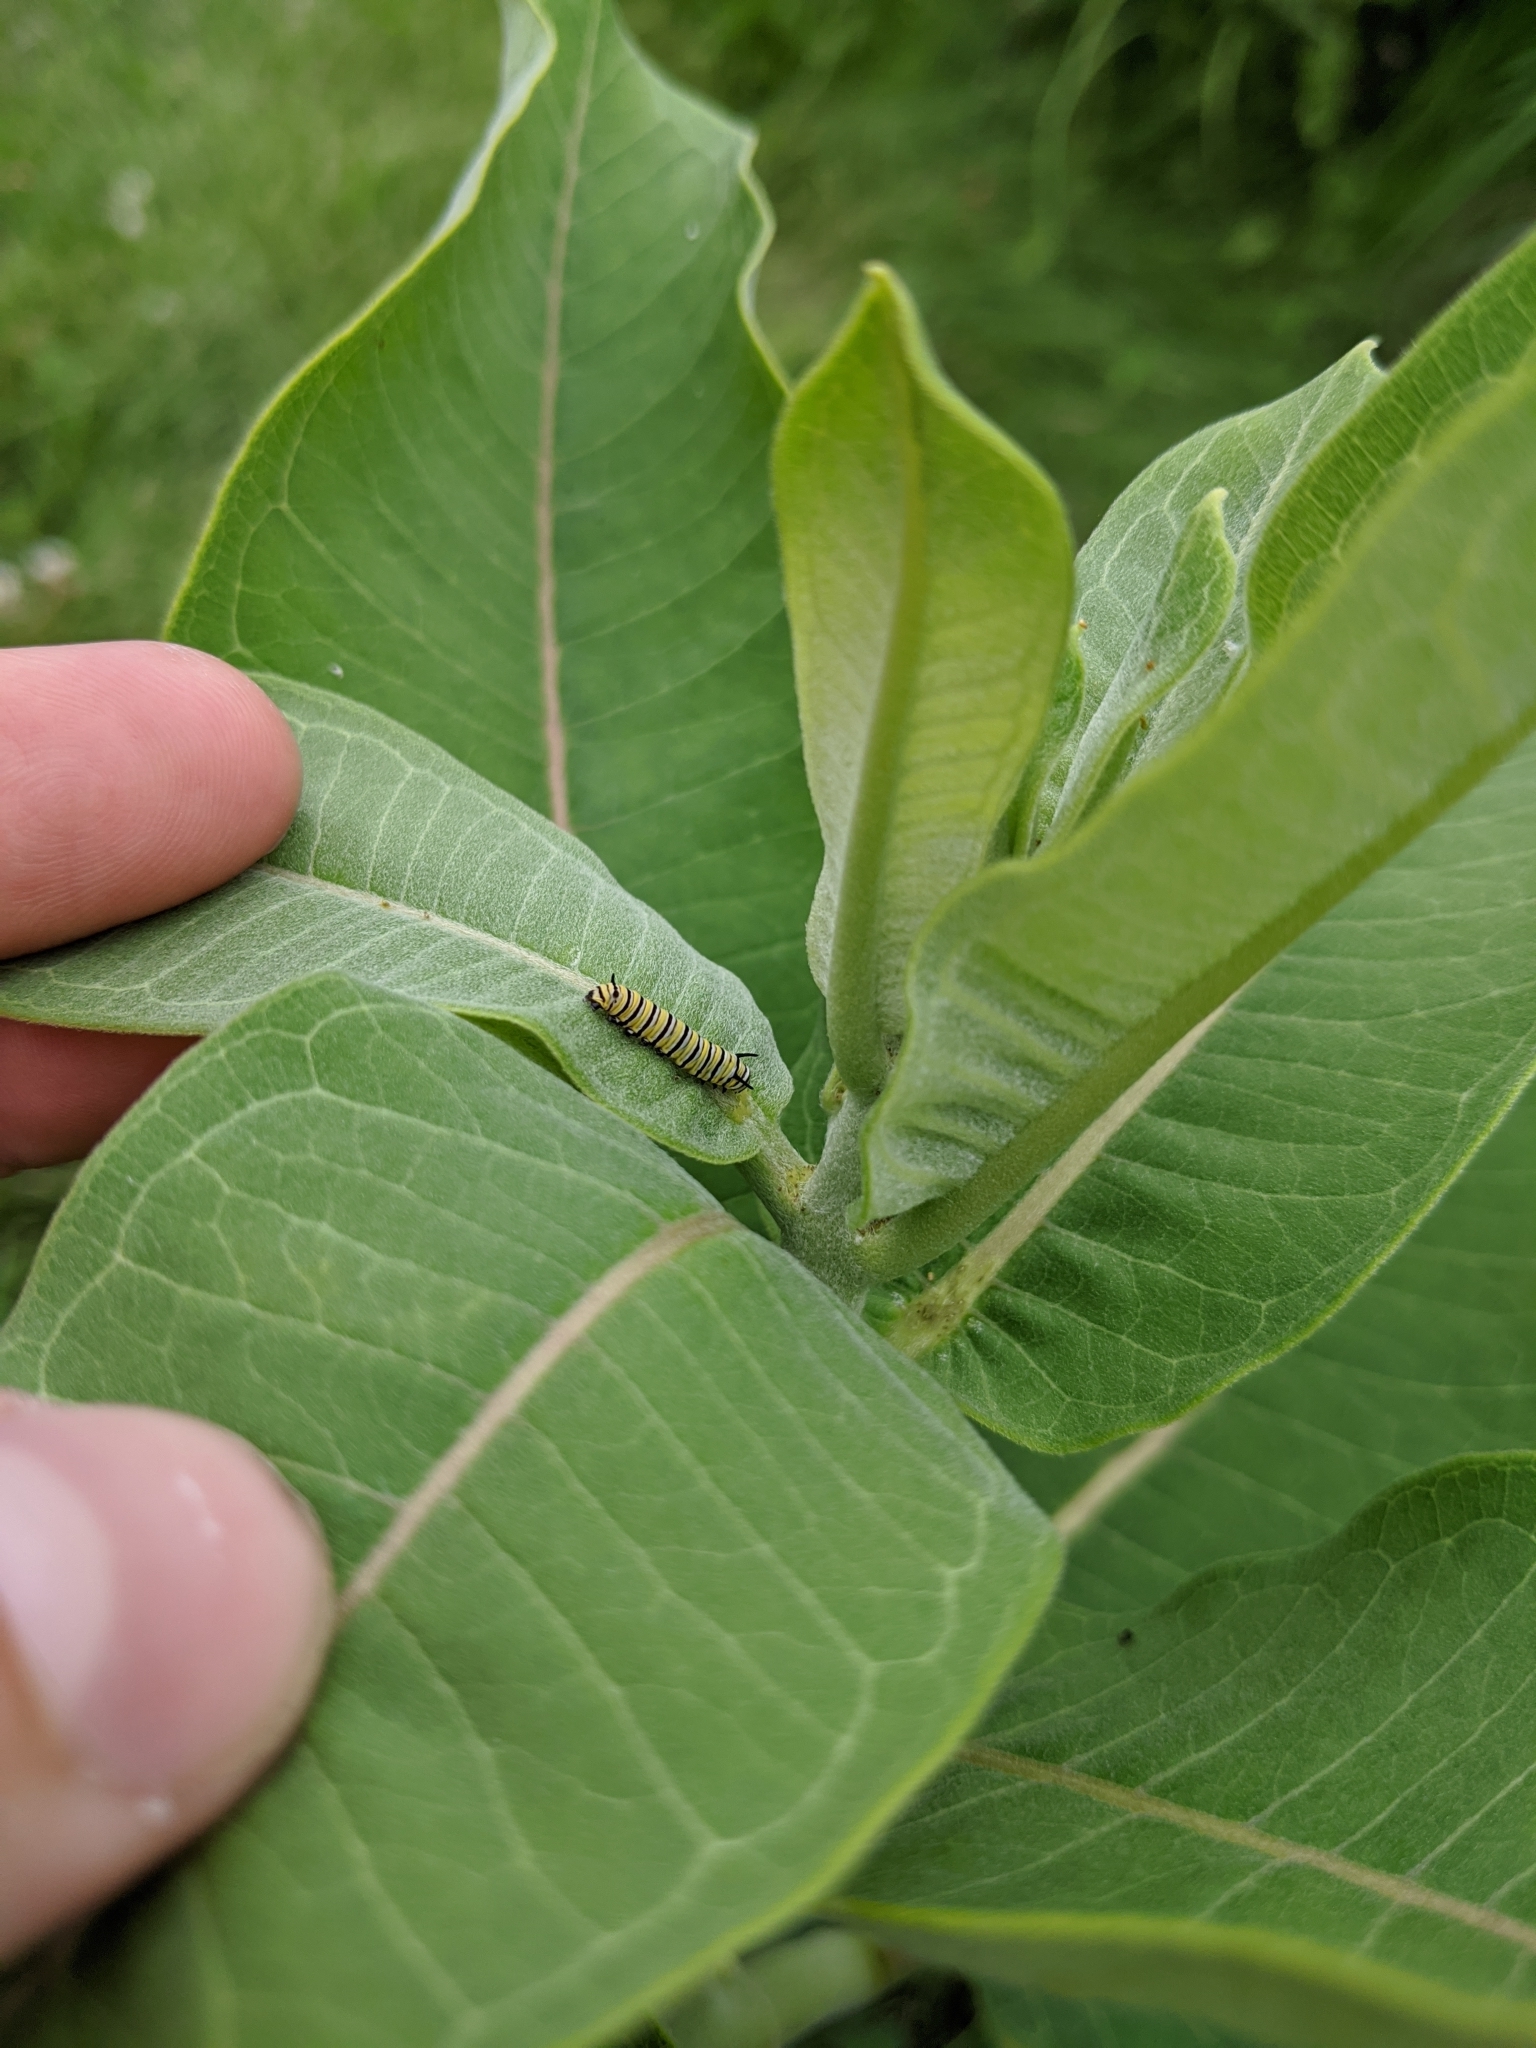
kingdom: Animalia
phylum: Arthropoda
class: Insecta
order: Lepidoptera
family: Nymphalidae
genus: Danaus
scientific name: Danaus plexippus
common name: Monarch
